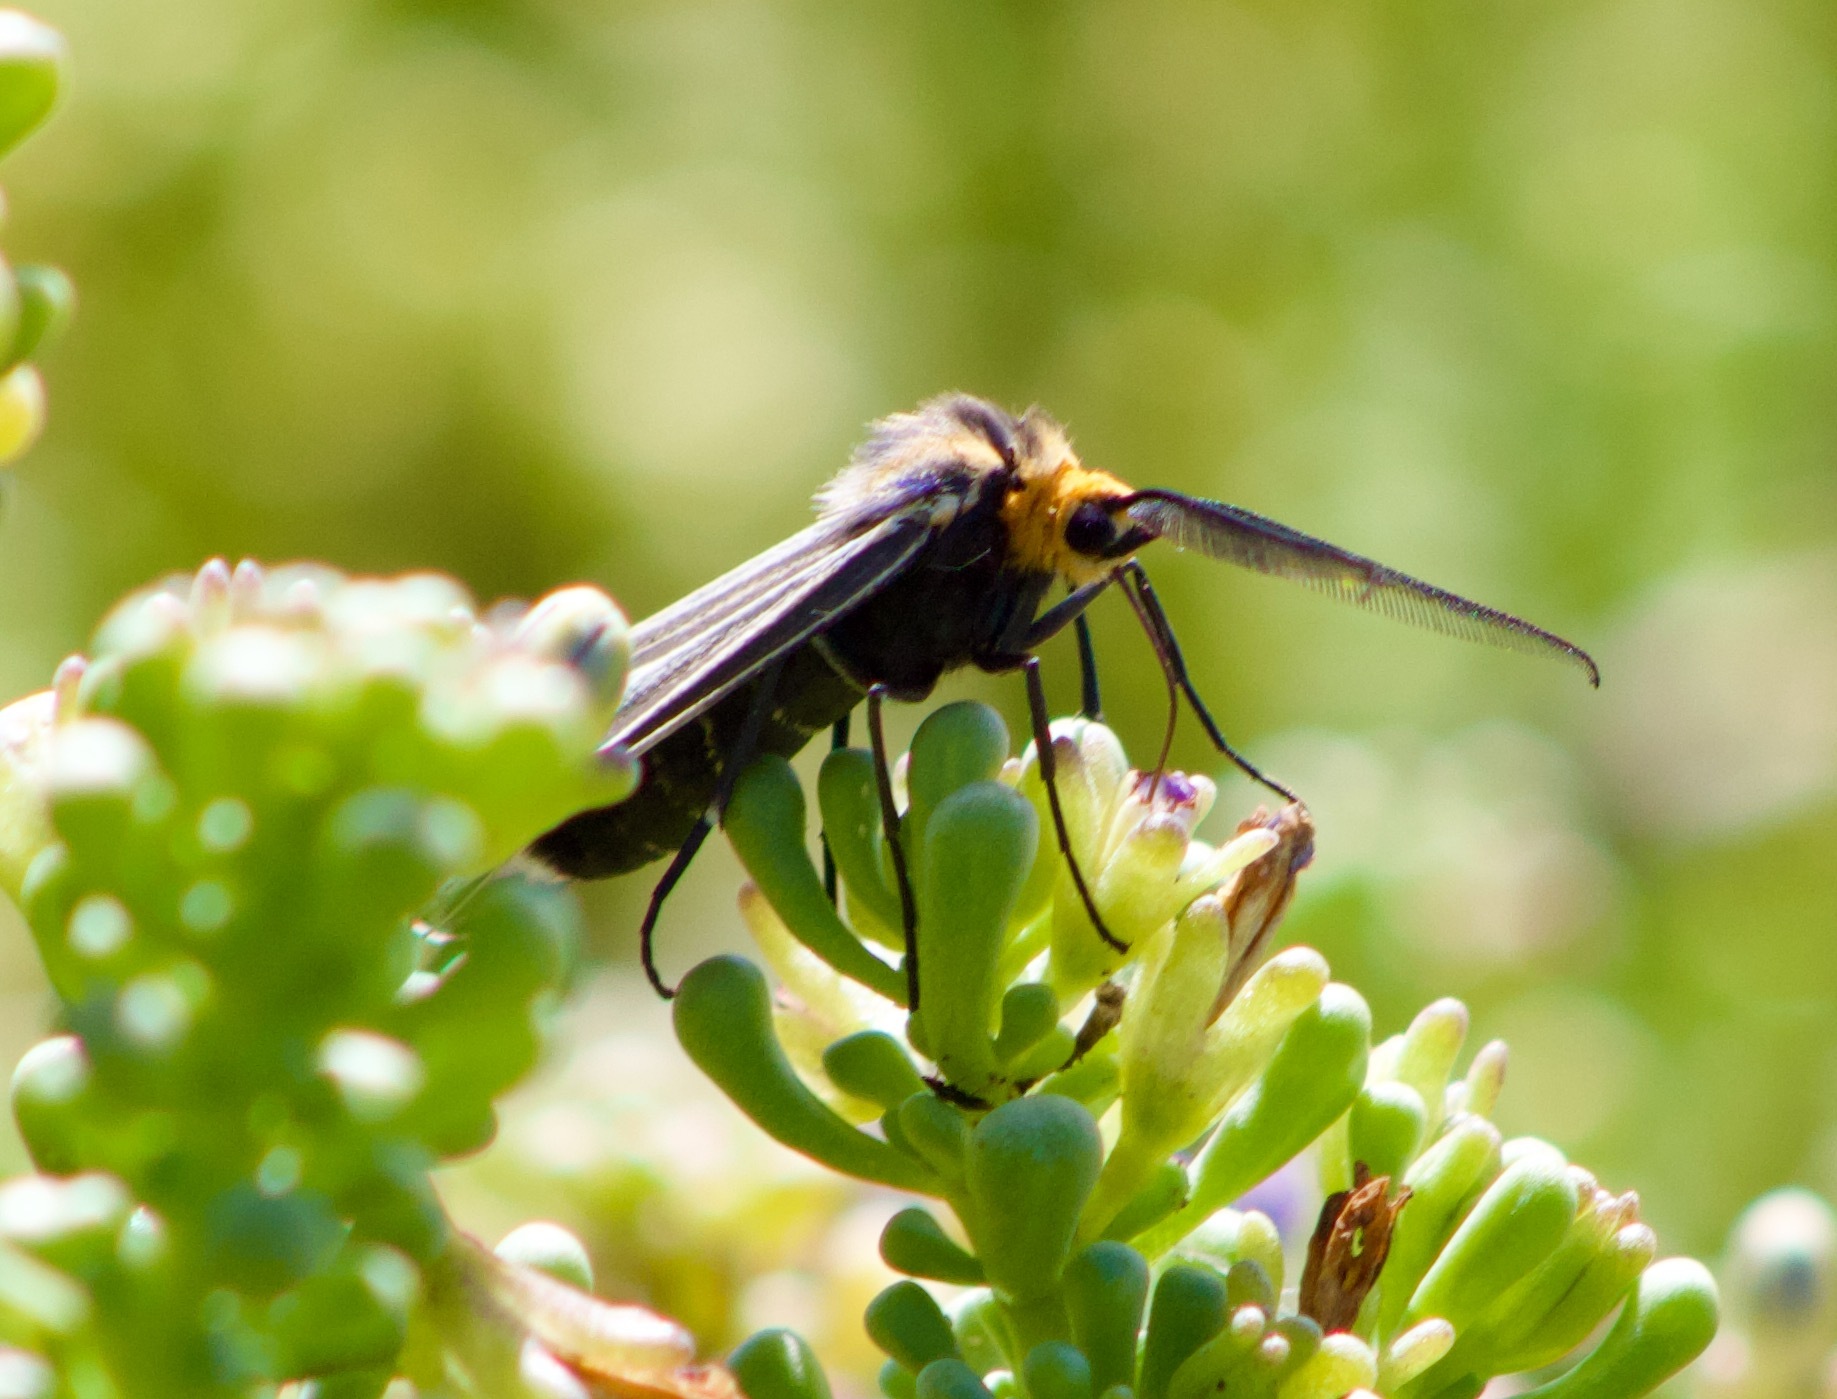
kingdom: Animalia
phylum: Arthropoda
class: Insecta
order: Lepidoptera
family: Erebidae
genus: Ctenucha
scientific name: Ctenucha vittigerum
